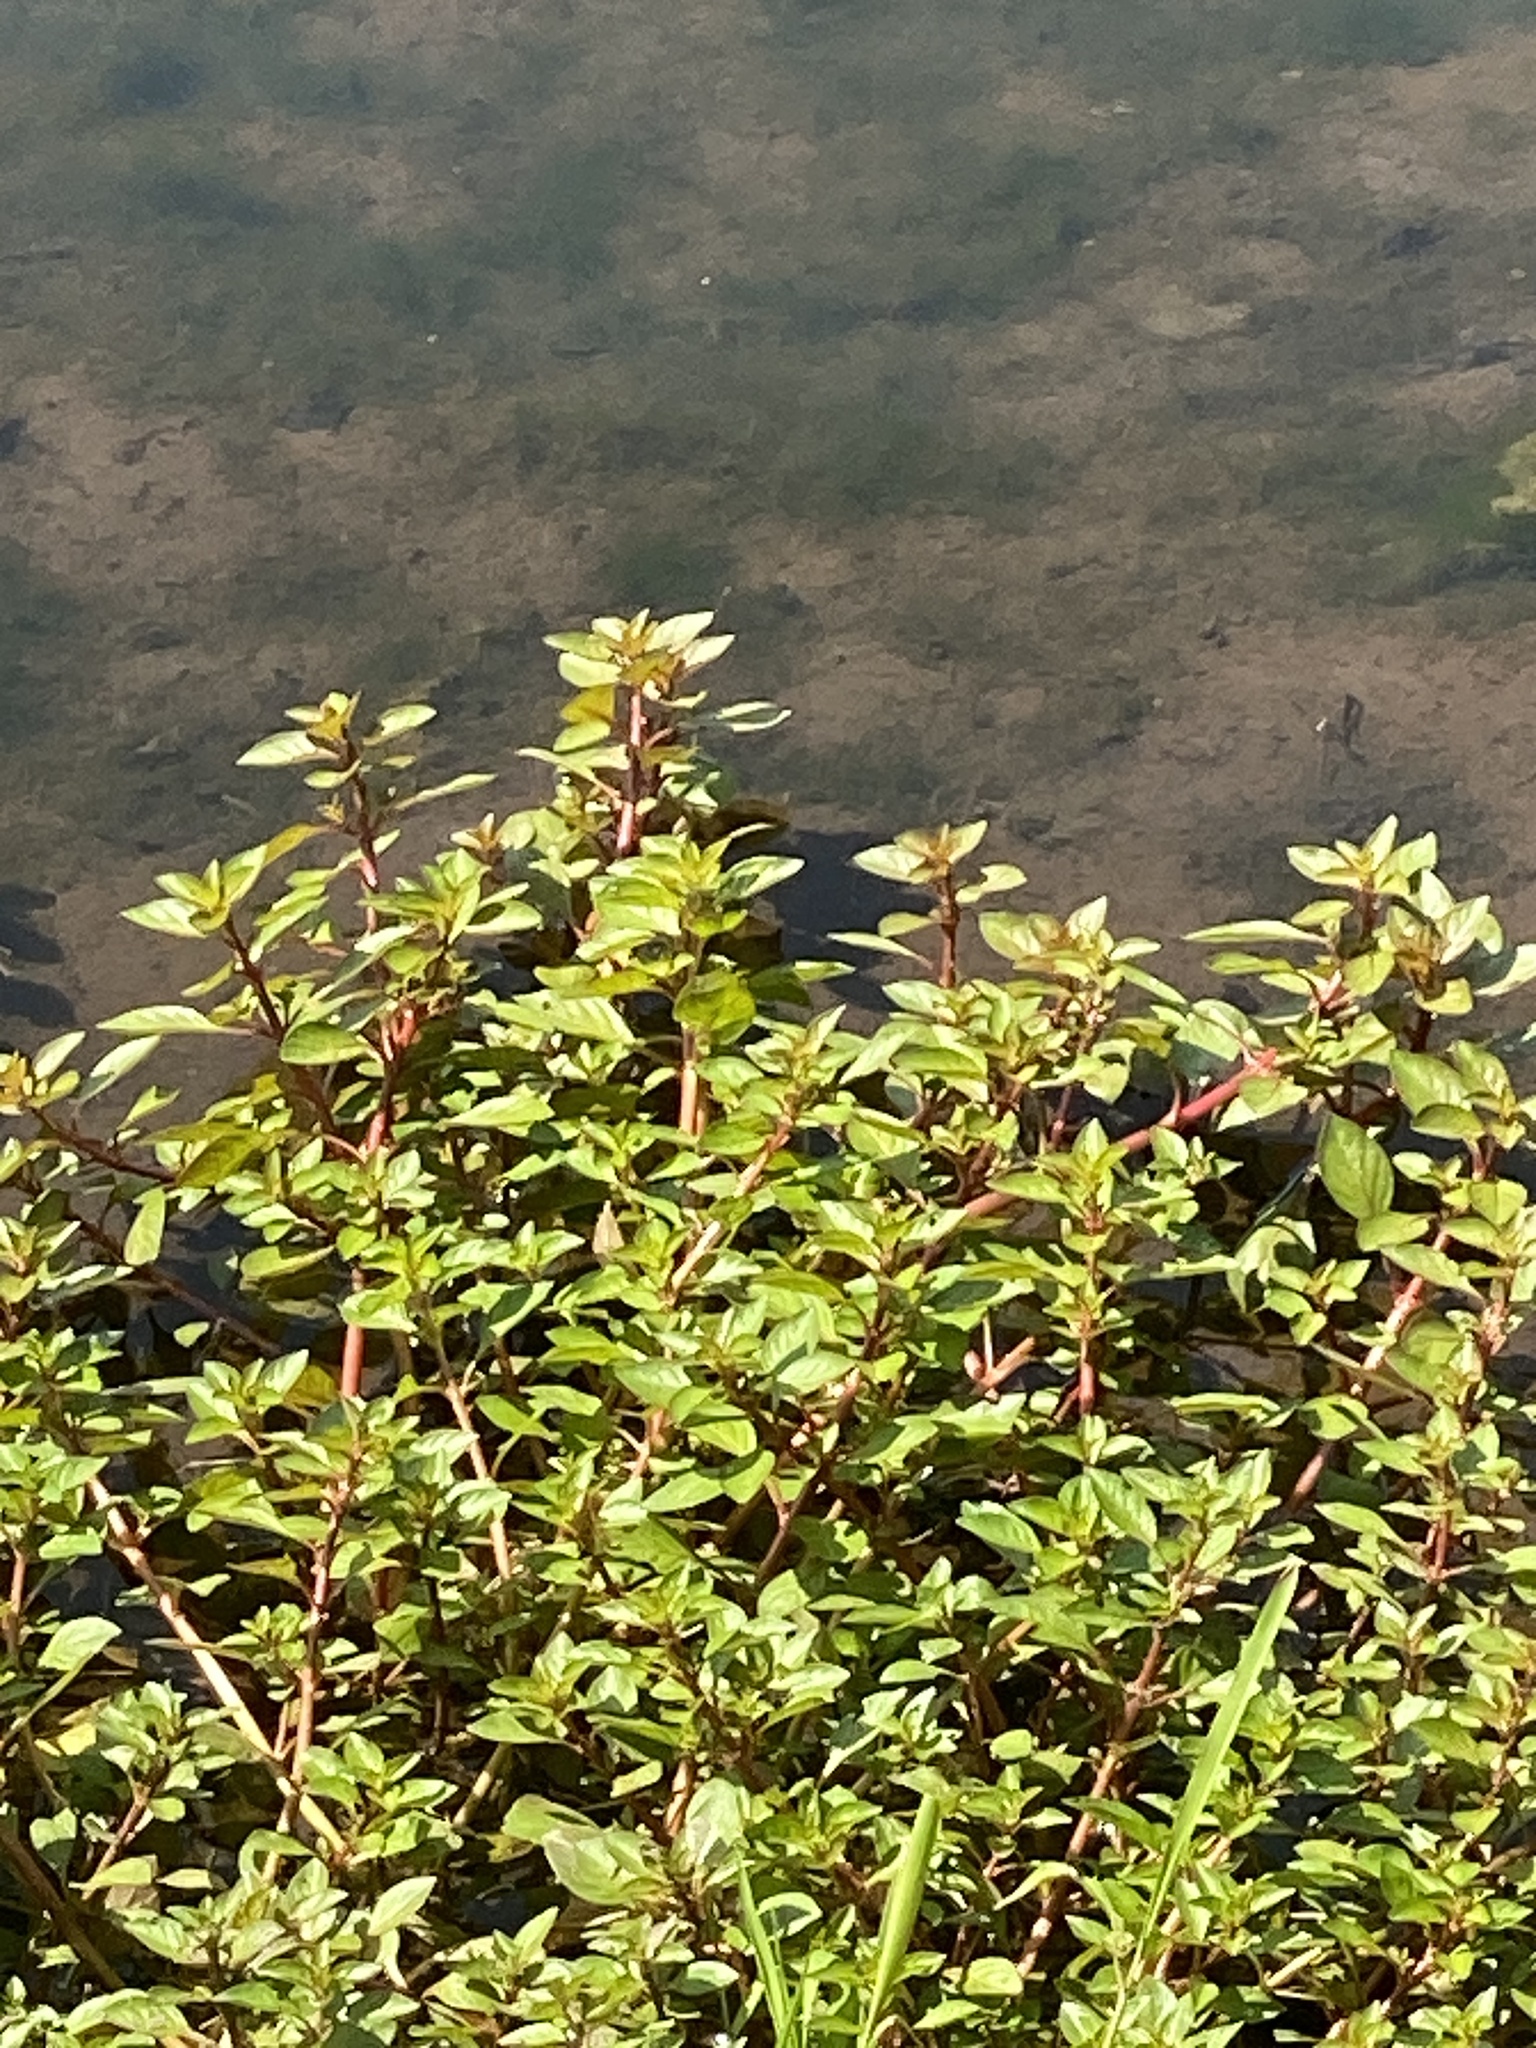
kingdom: Plantae
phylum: Tracheophyta
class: Magnoliopsida
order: Myrtales
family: Onagraceae
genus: Ludwigia
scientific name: Ludwigia palustris
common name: Hampshire-purslane
